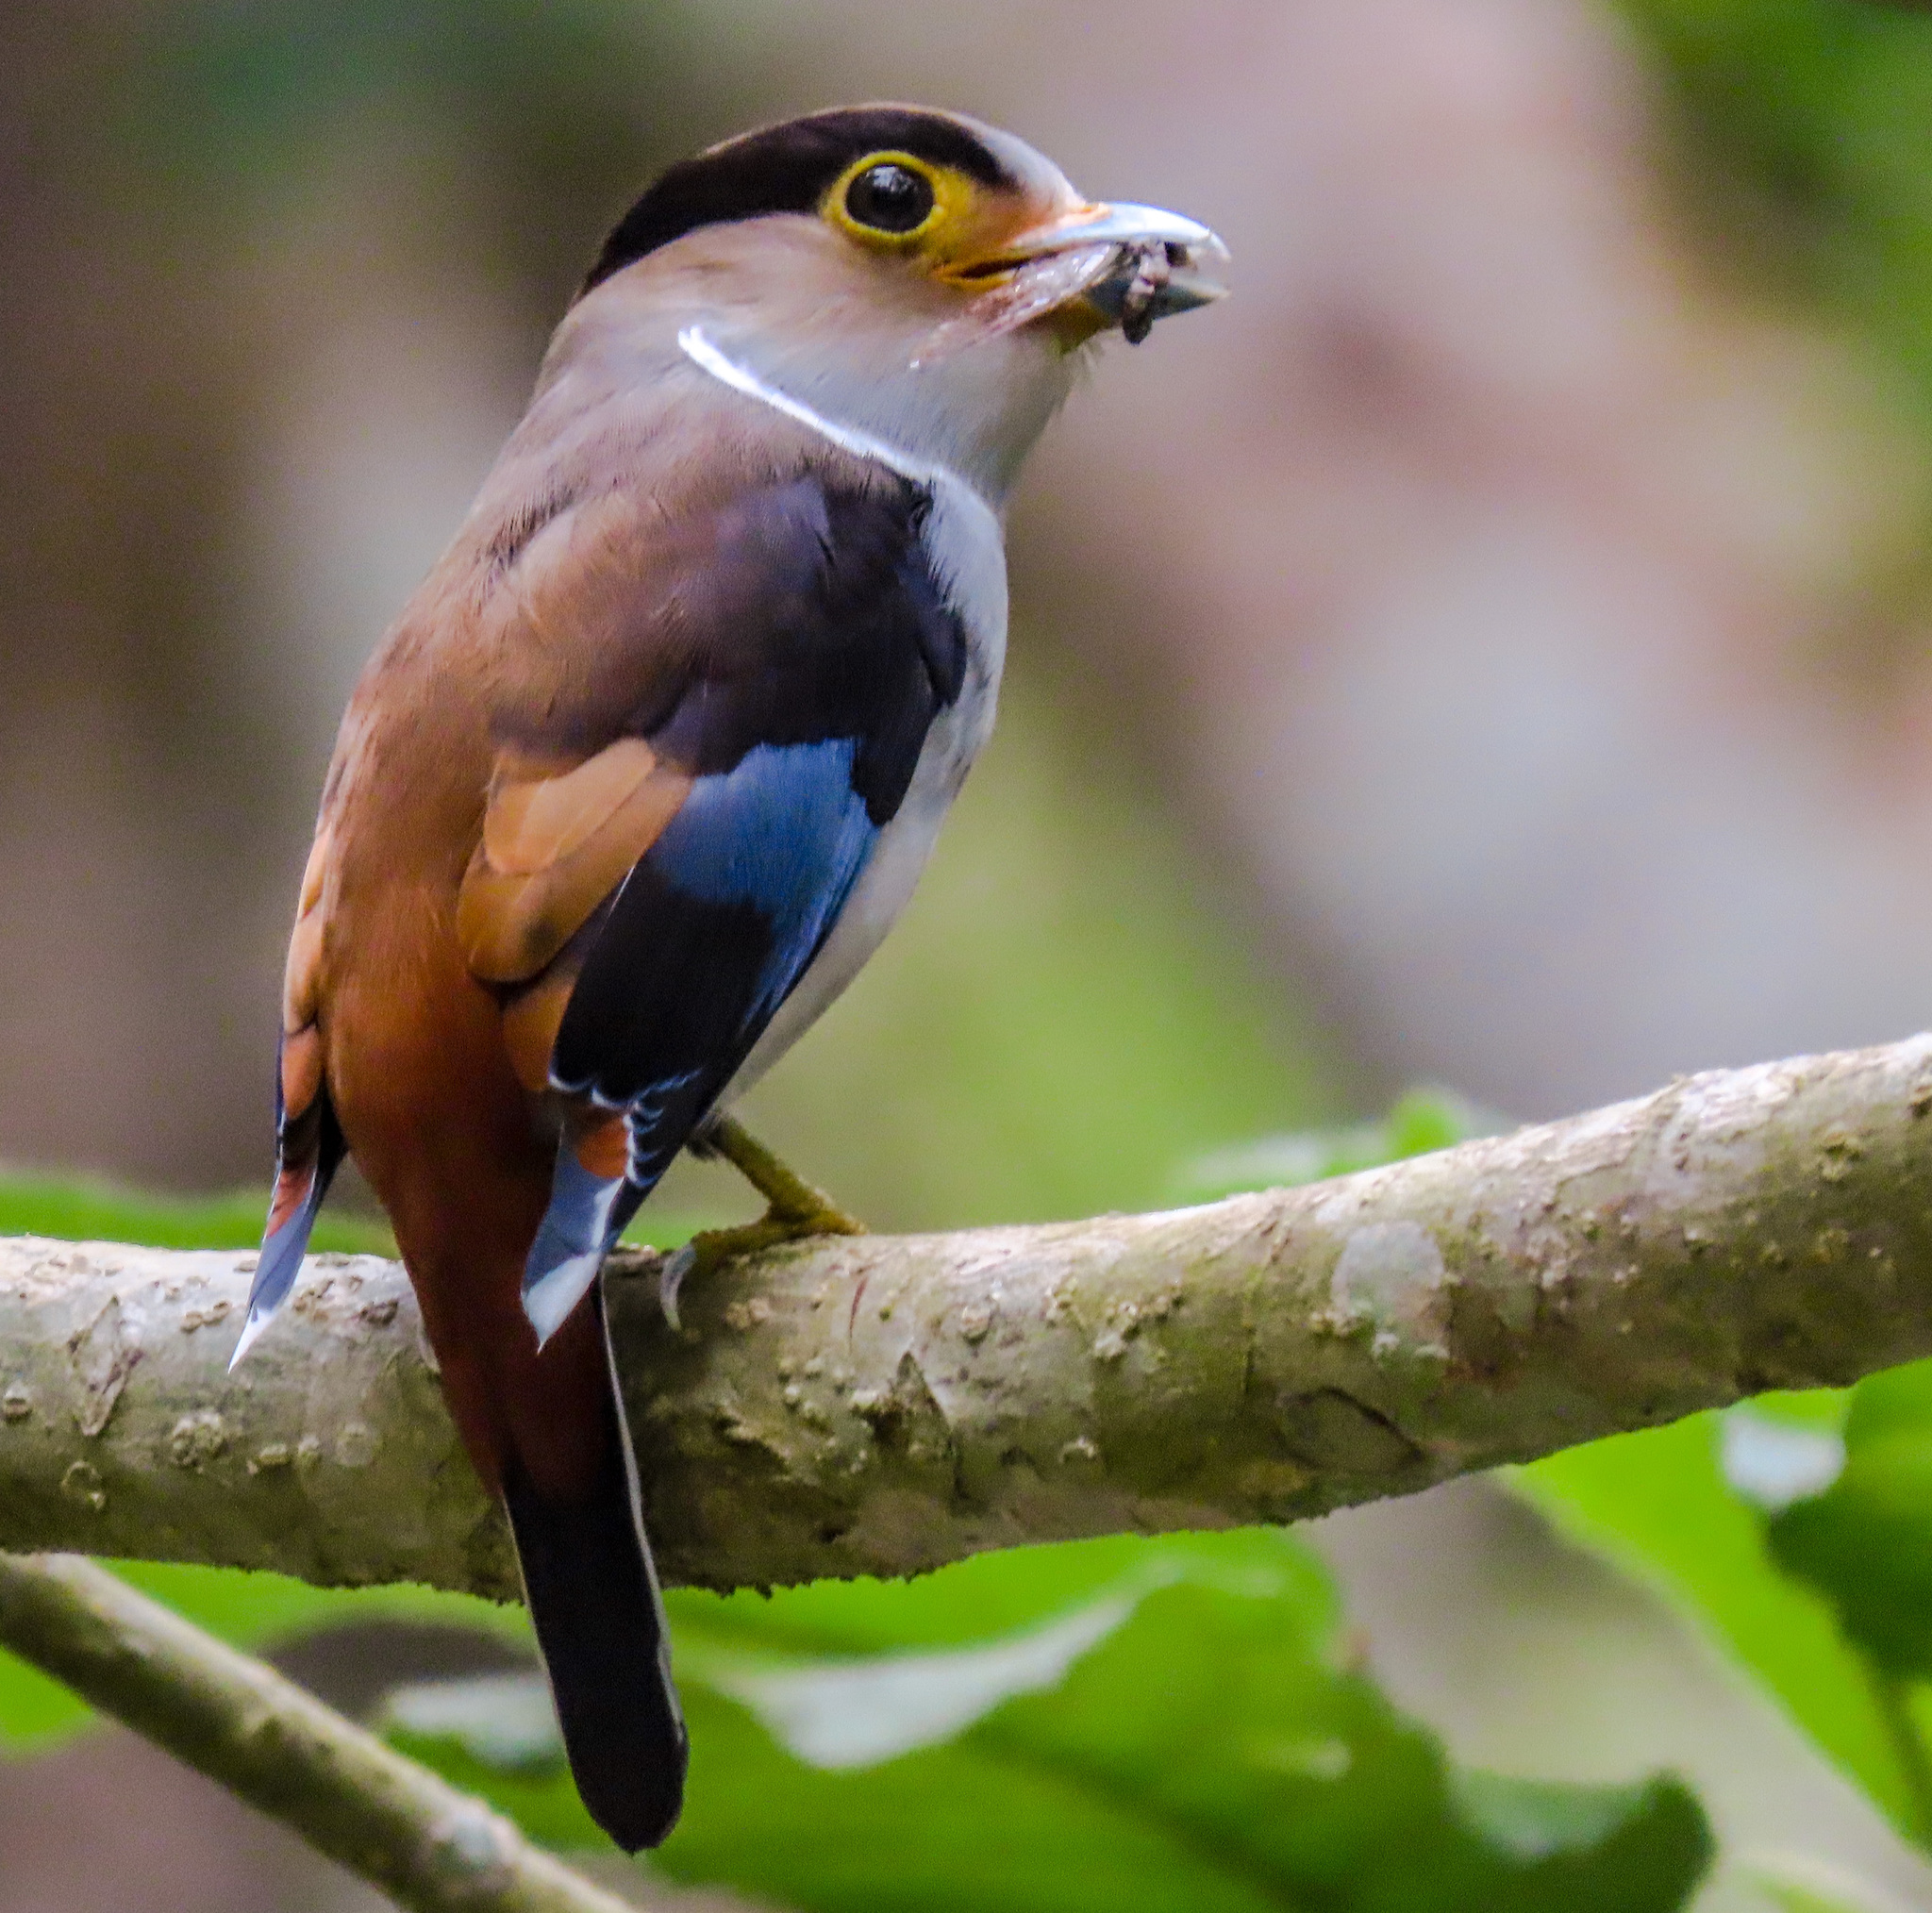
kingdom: Animalia
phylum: Chordata
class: Aves
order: Passeriformes
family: Eurylaimidae
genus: Serilophus
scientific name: Serilophus lunatus
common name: Silver-breasted broadbill
